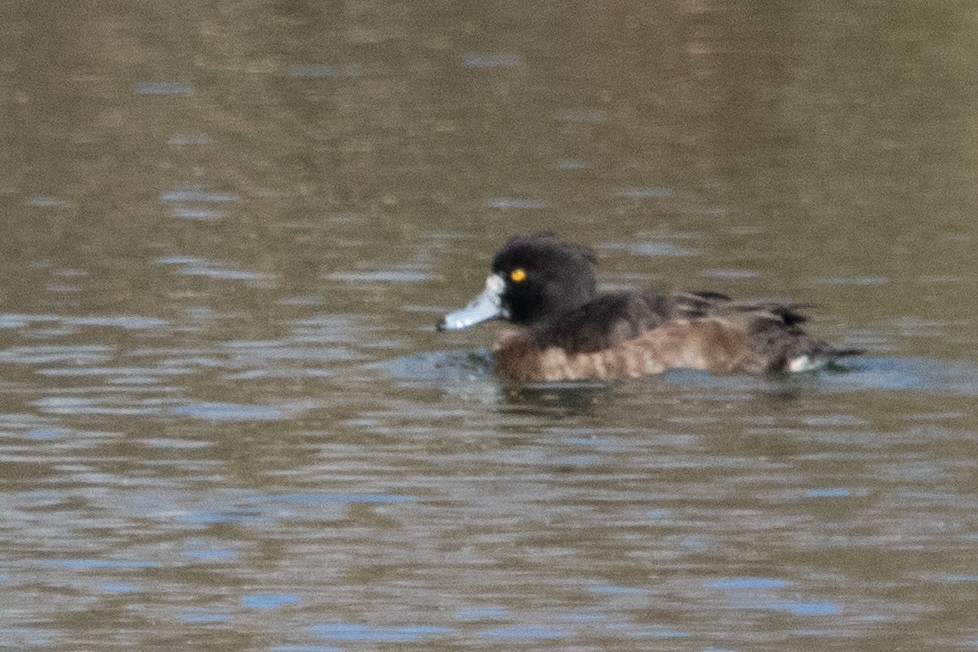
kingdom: Animalia
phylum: Chordata
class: Aves
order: Anseriformes
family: Anatidae
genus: Aythya
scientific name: Aythya fuligula
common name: Tufted duck
